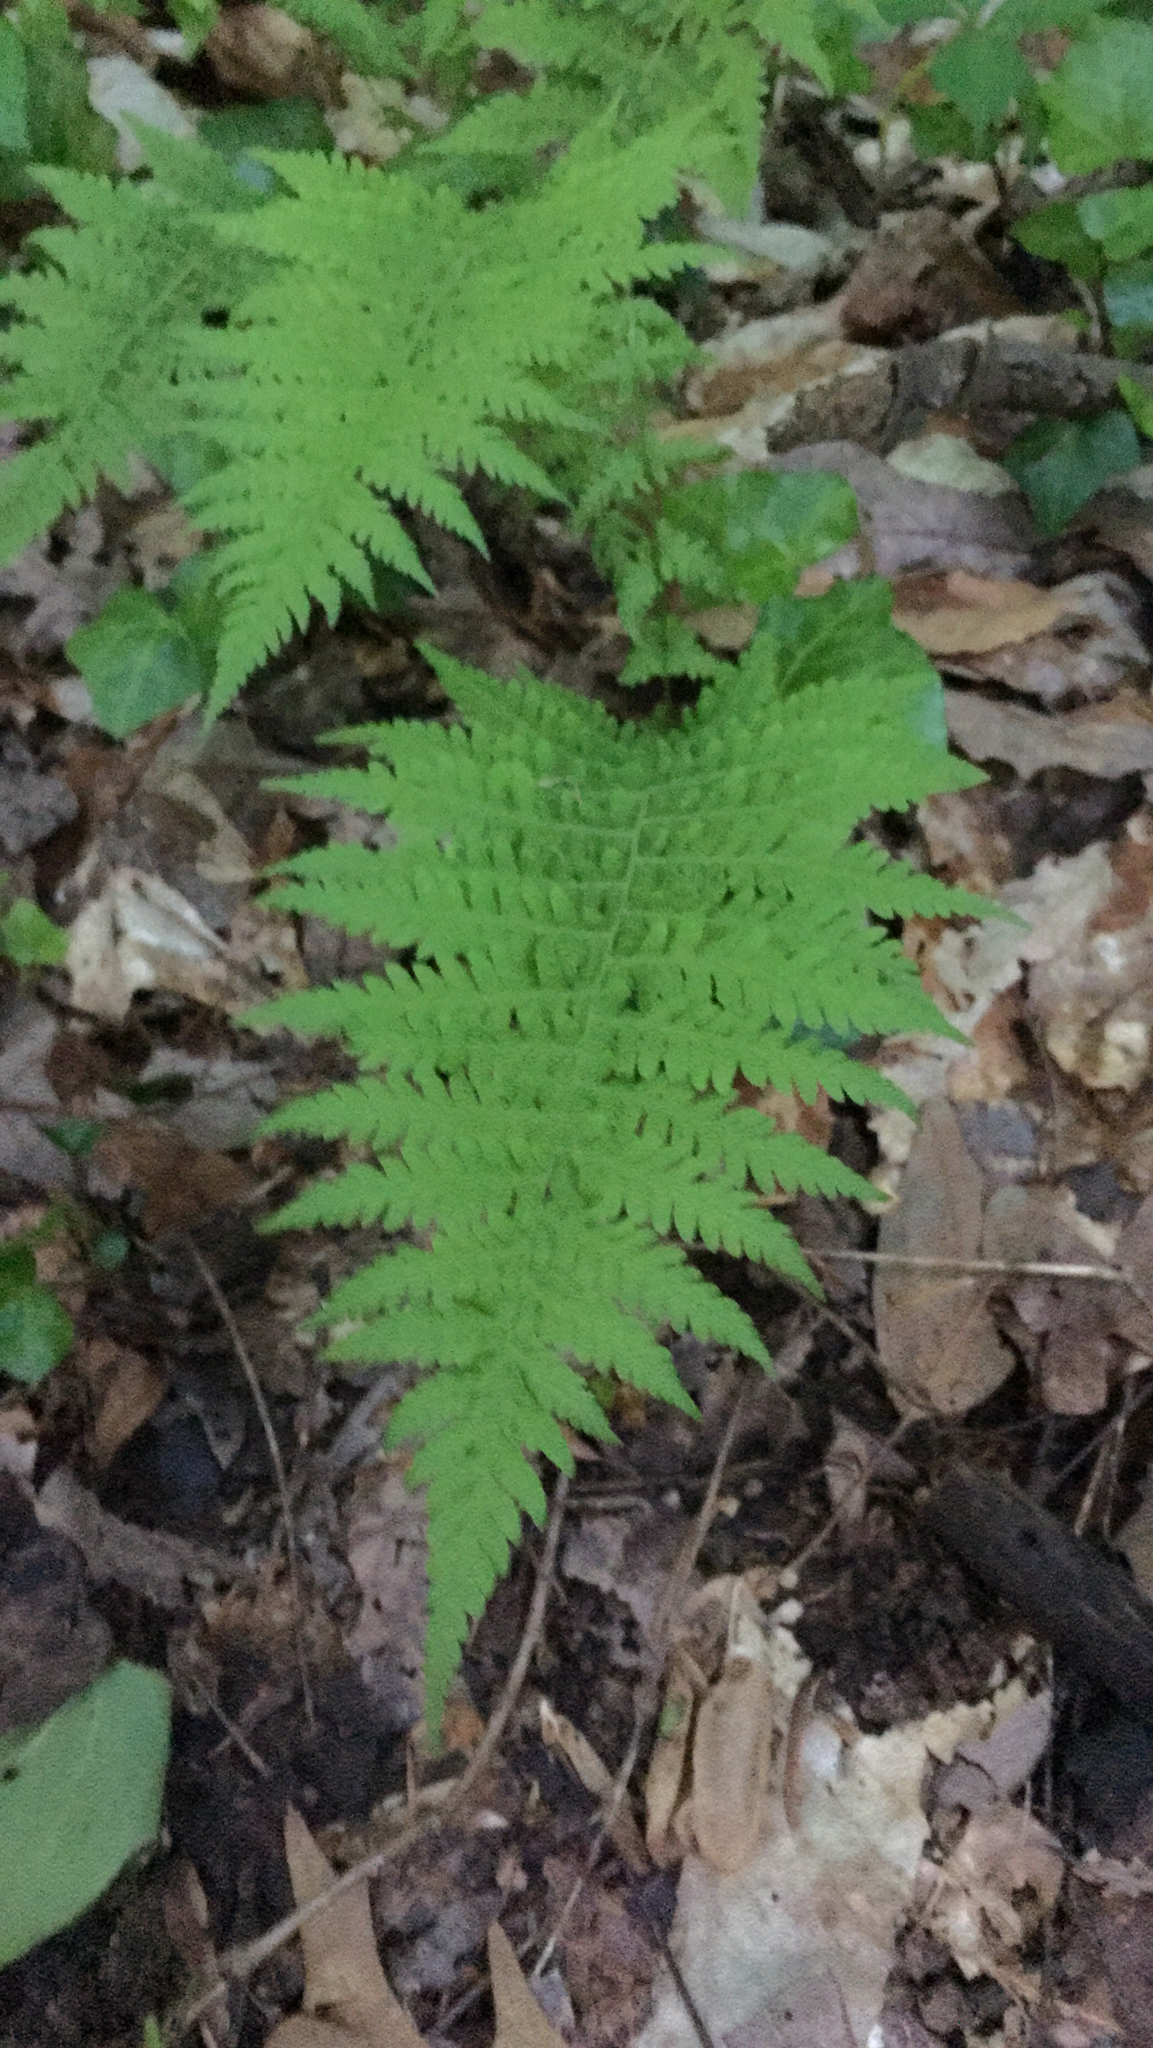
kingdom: Plantae
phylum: Tracheophyta
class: Polypodiopsida
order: Polypodiales
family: Thelypteridaceae
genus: Amauropelta
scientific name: Amauropelta noveboracensis
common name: New york fern
